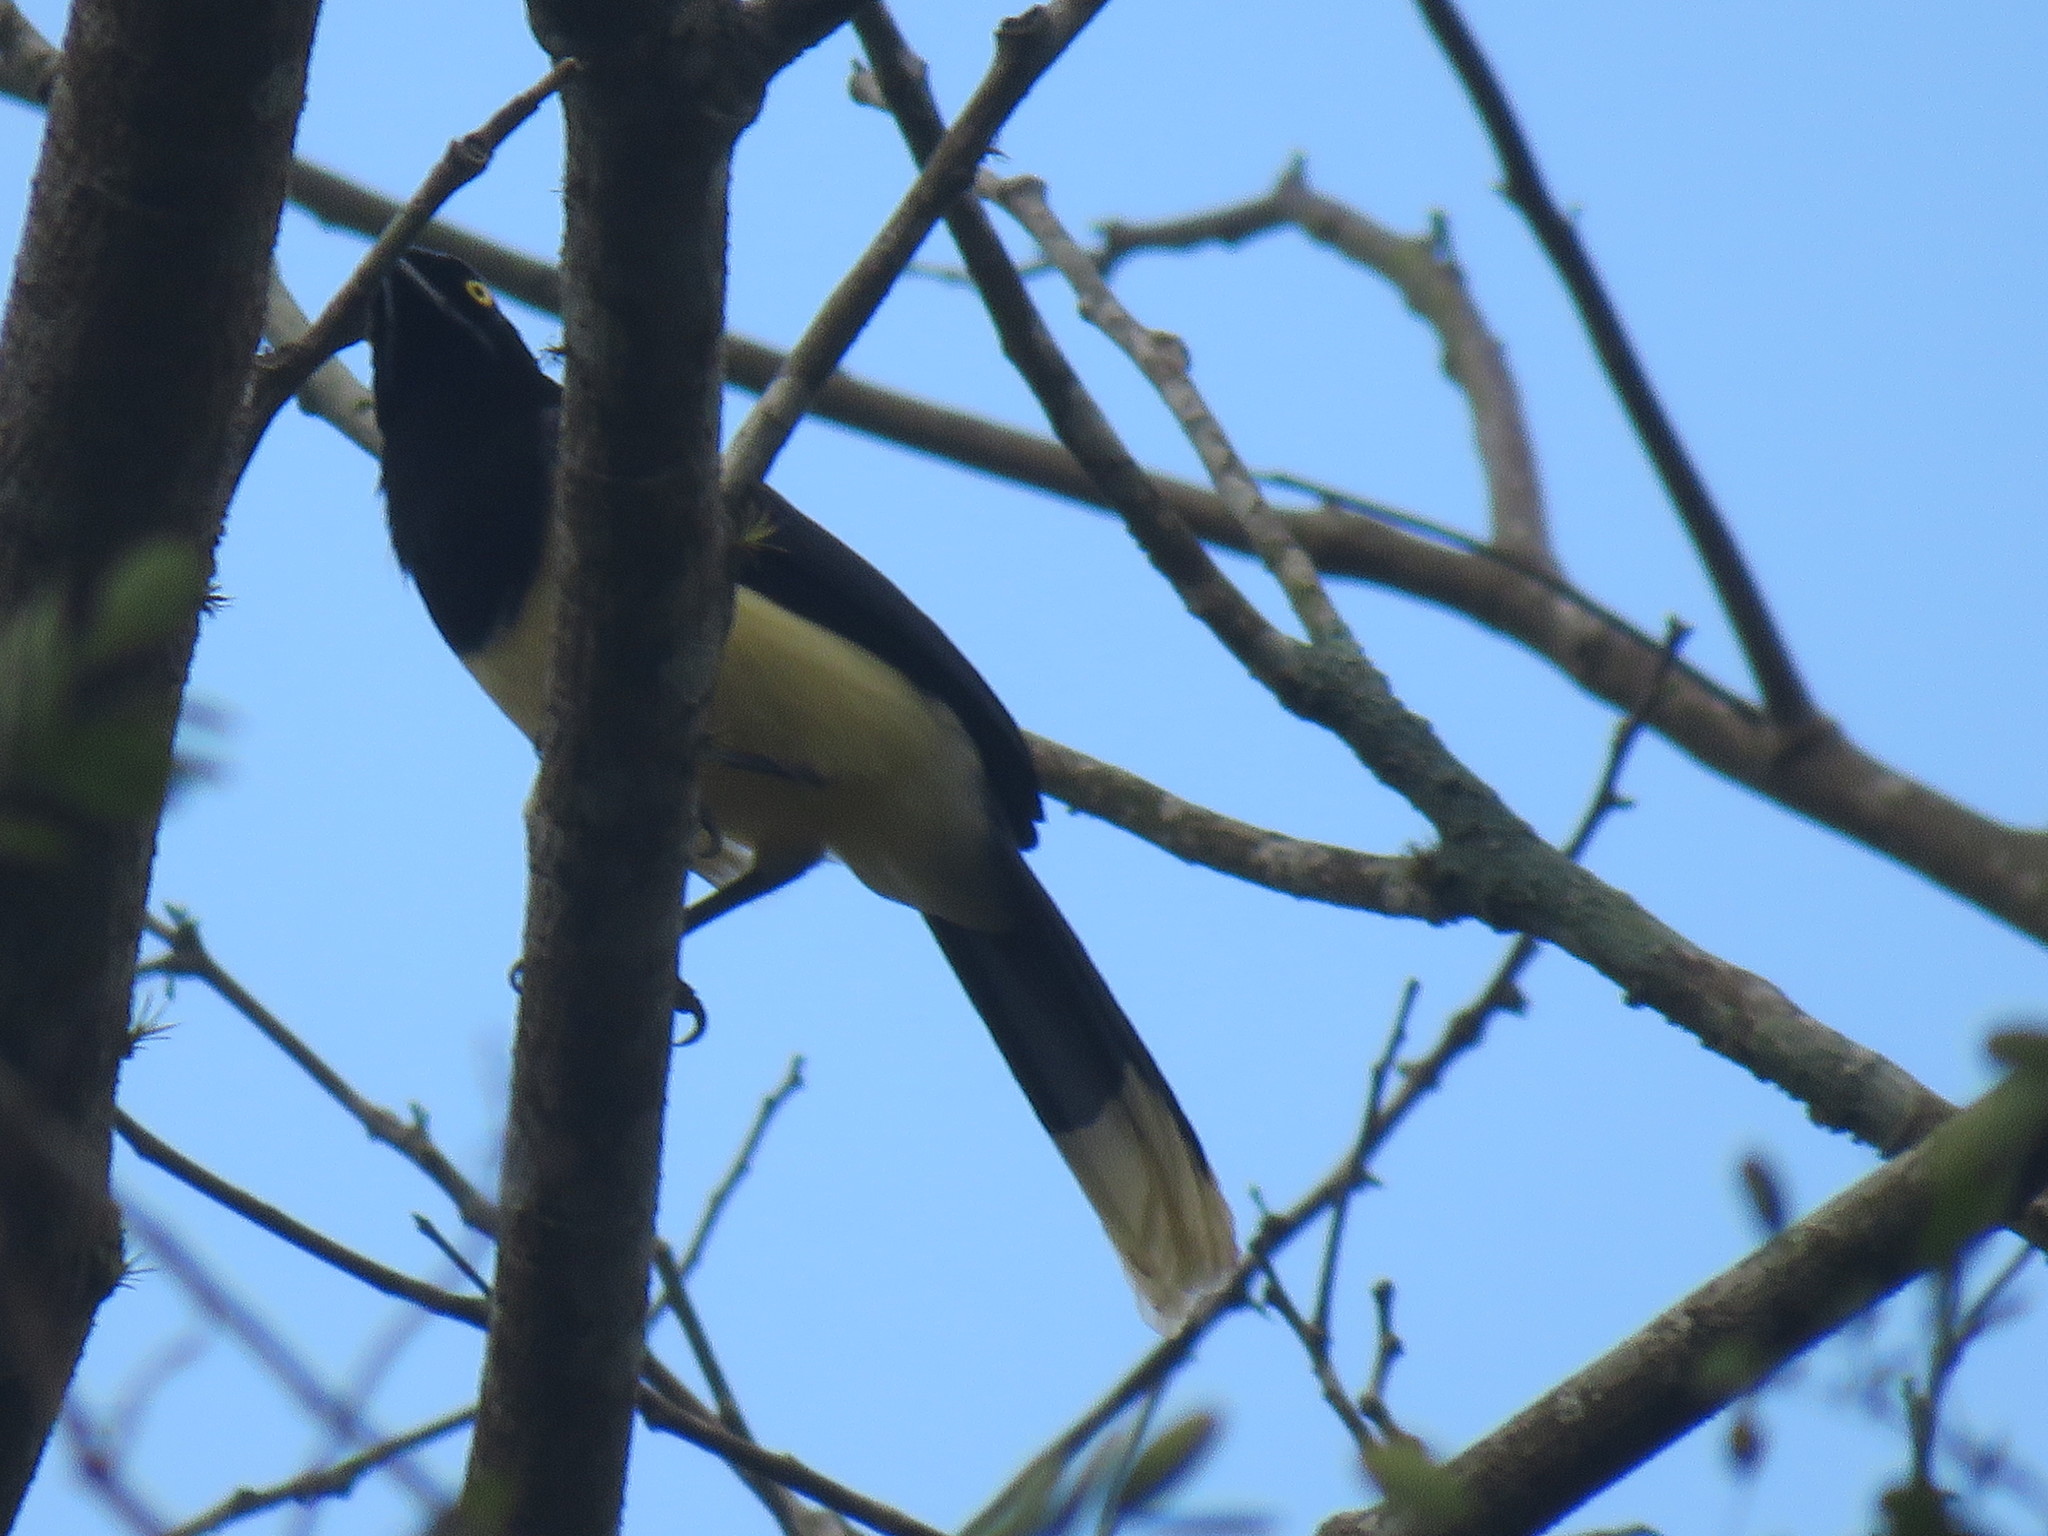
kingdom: Animalia
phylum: Chordata
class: Aves
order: Passeriformes
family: Corvidae
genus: Cyanocorax
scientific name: Cyanocorax affinis
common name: Black-chested jay
